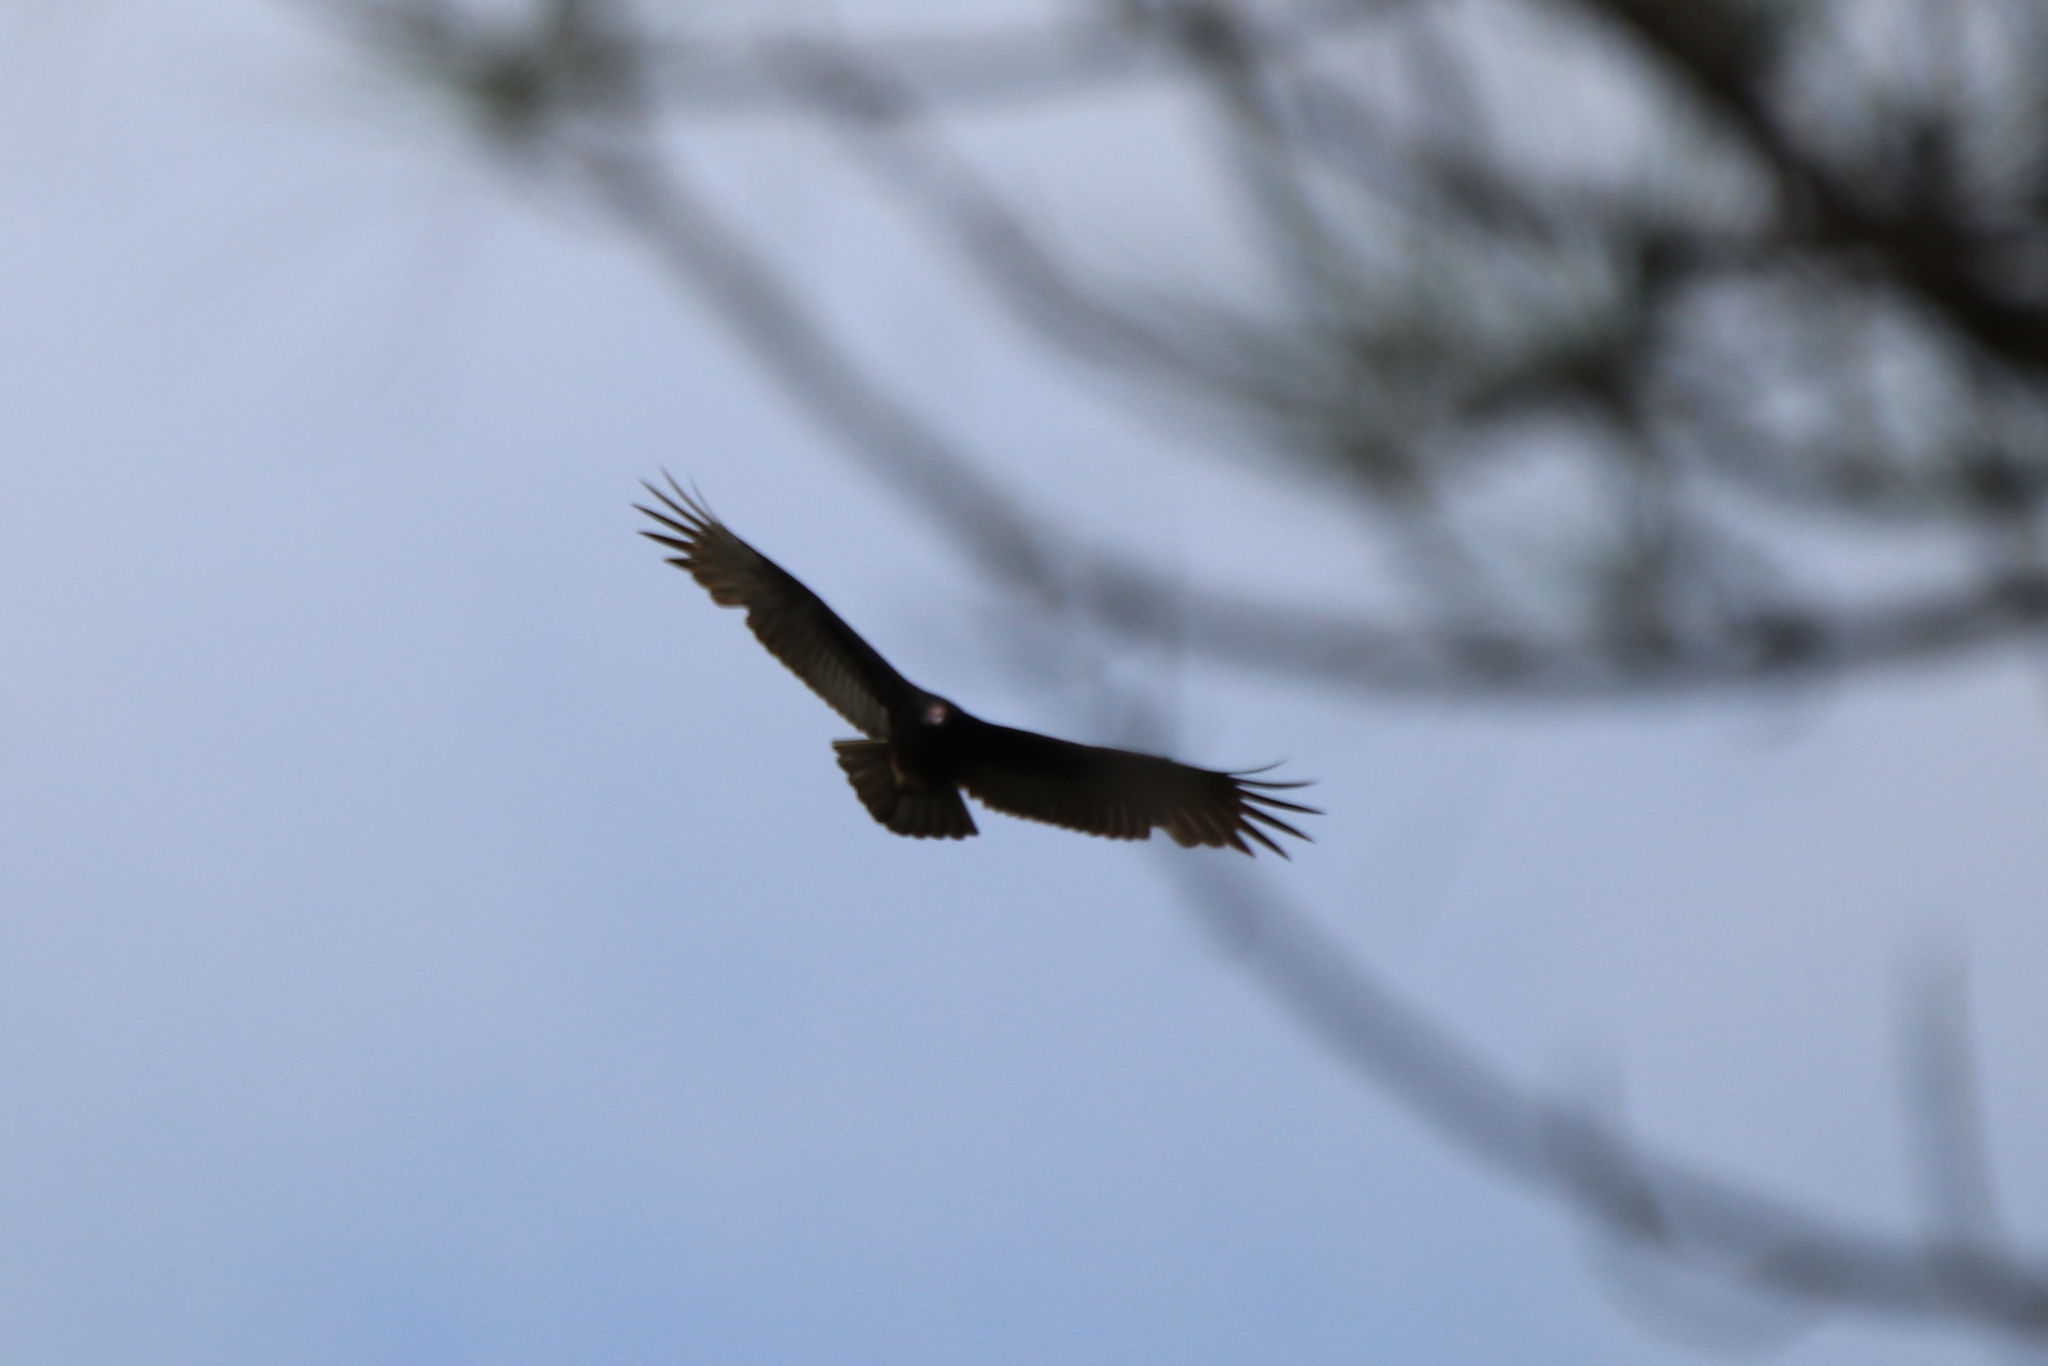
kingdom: Animalia
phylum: Chordata
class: Aves
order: Accipitriformes
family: Cathartidae
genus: Cathartes
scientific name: Cathartes aura
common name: Turkey vulture
